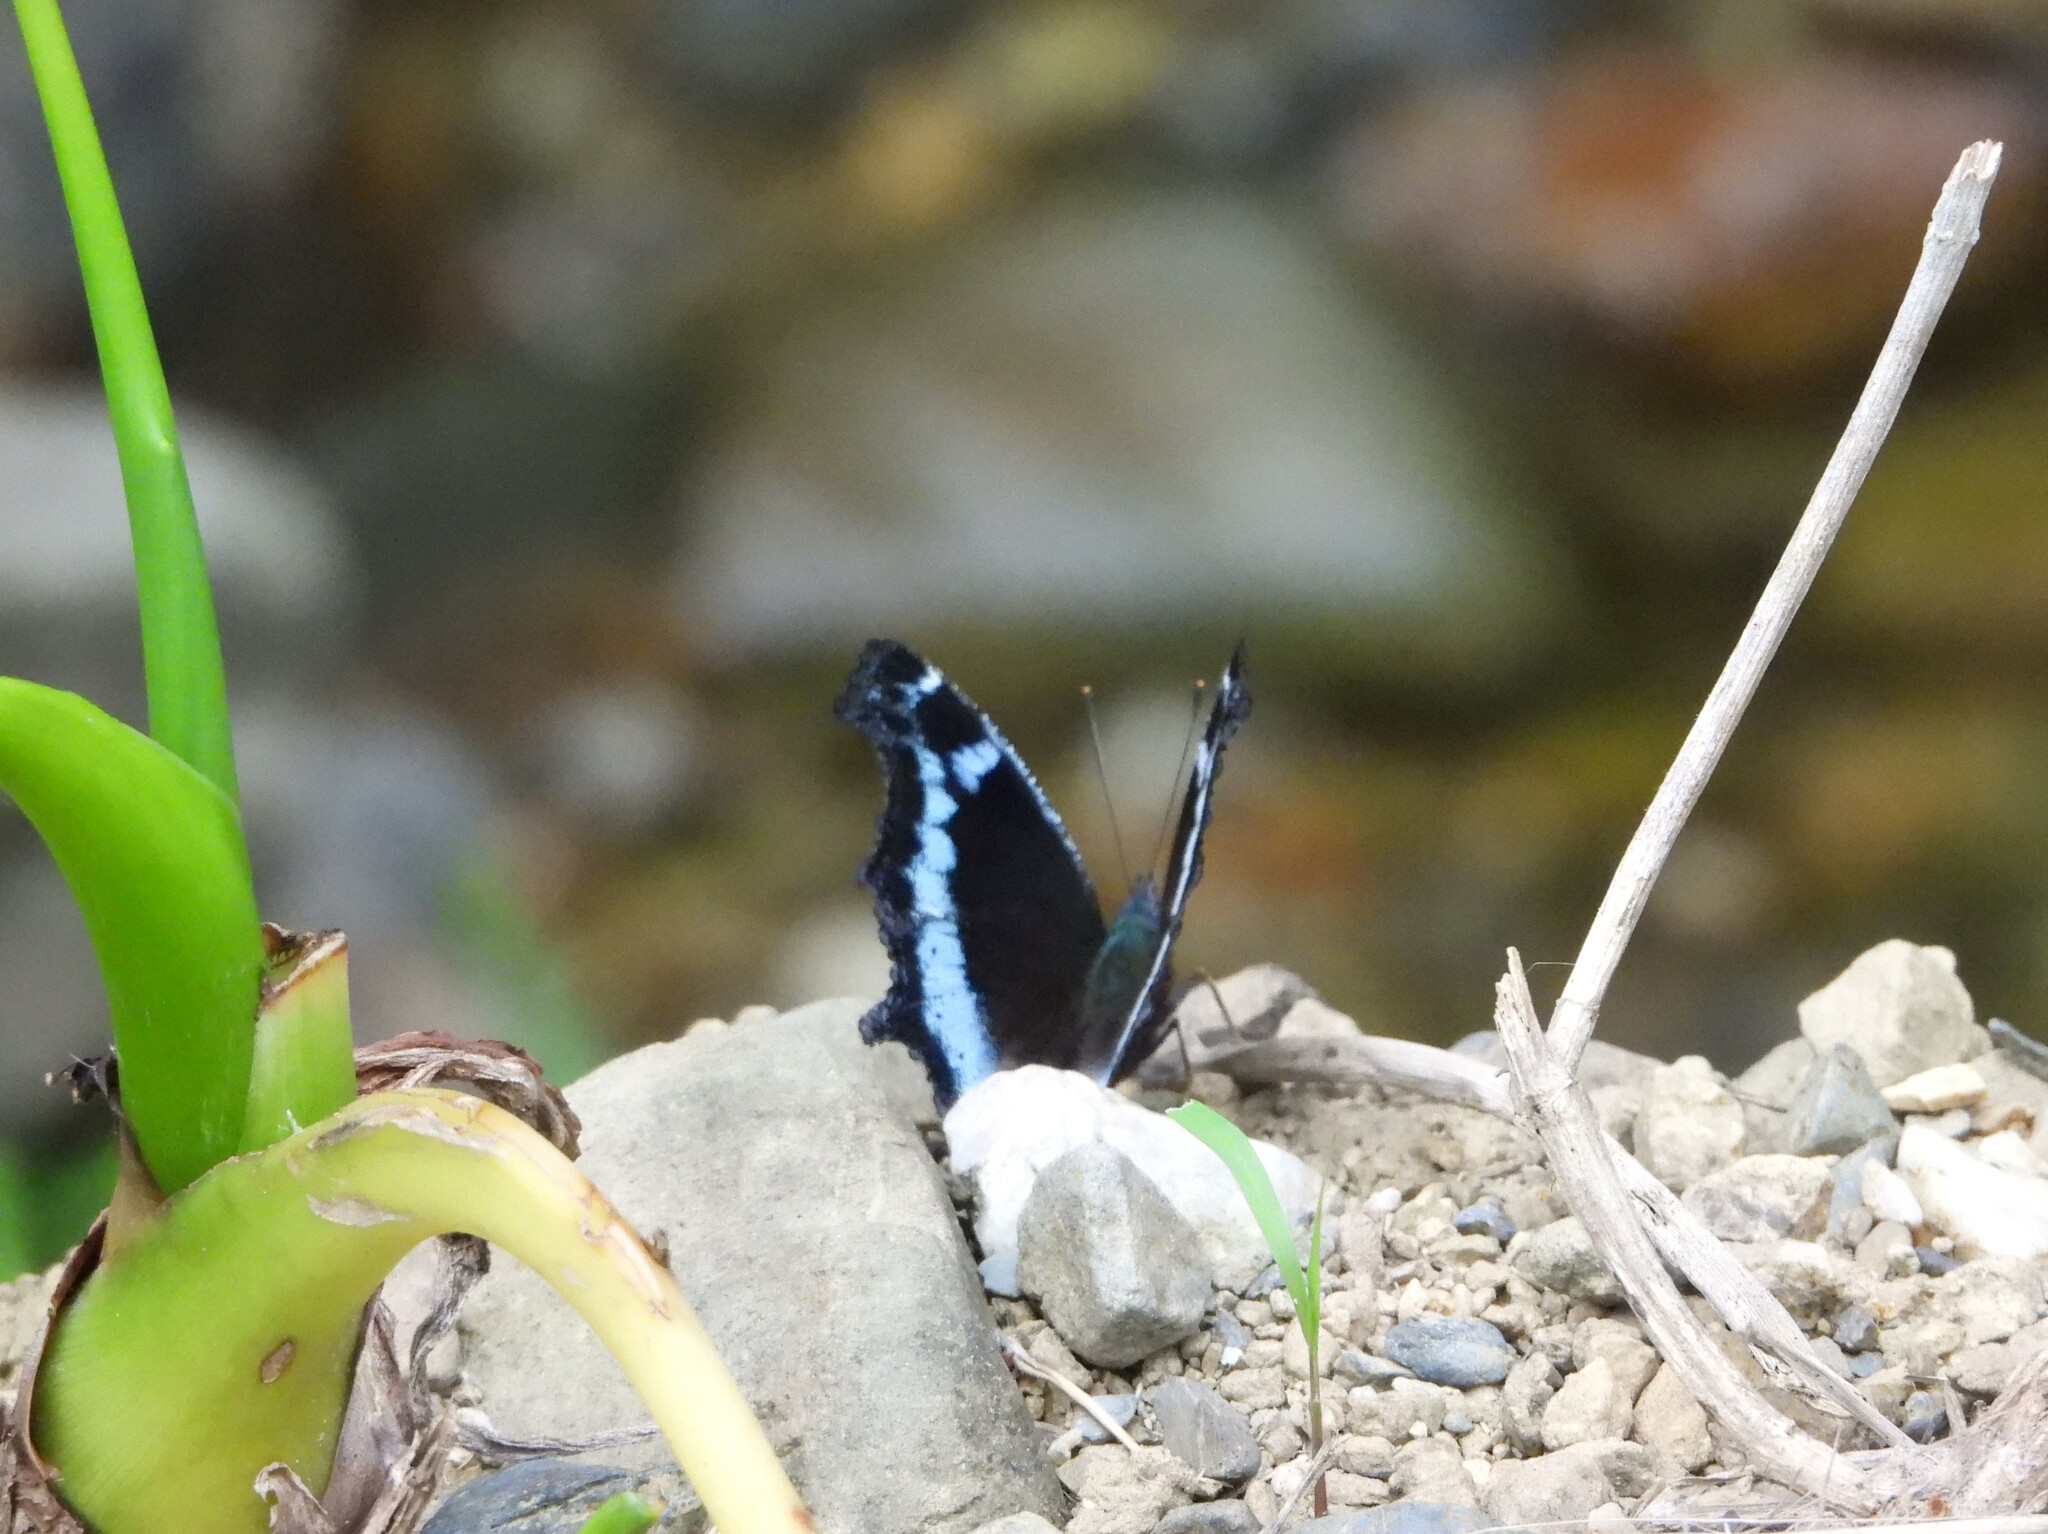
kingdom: Animalia
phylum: Arthropoda
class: Insecta
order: Lepidoptera
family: Nymphalidae
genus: Vanessa
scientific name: Vanessa Kaniska canace
